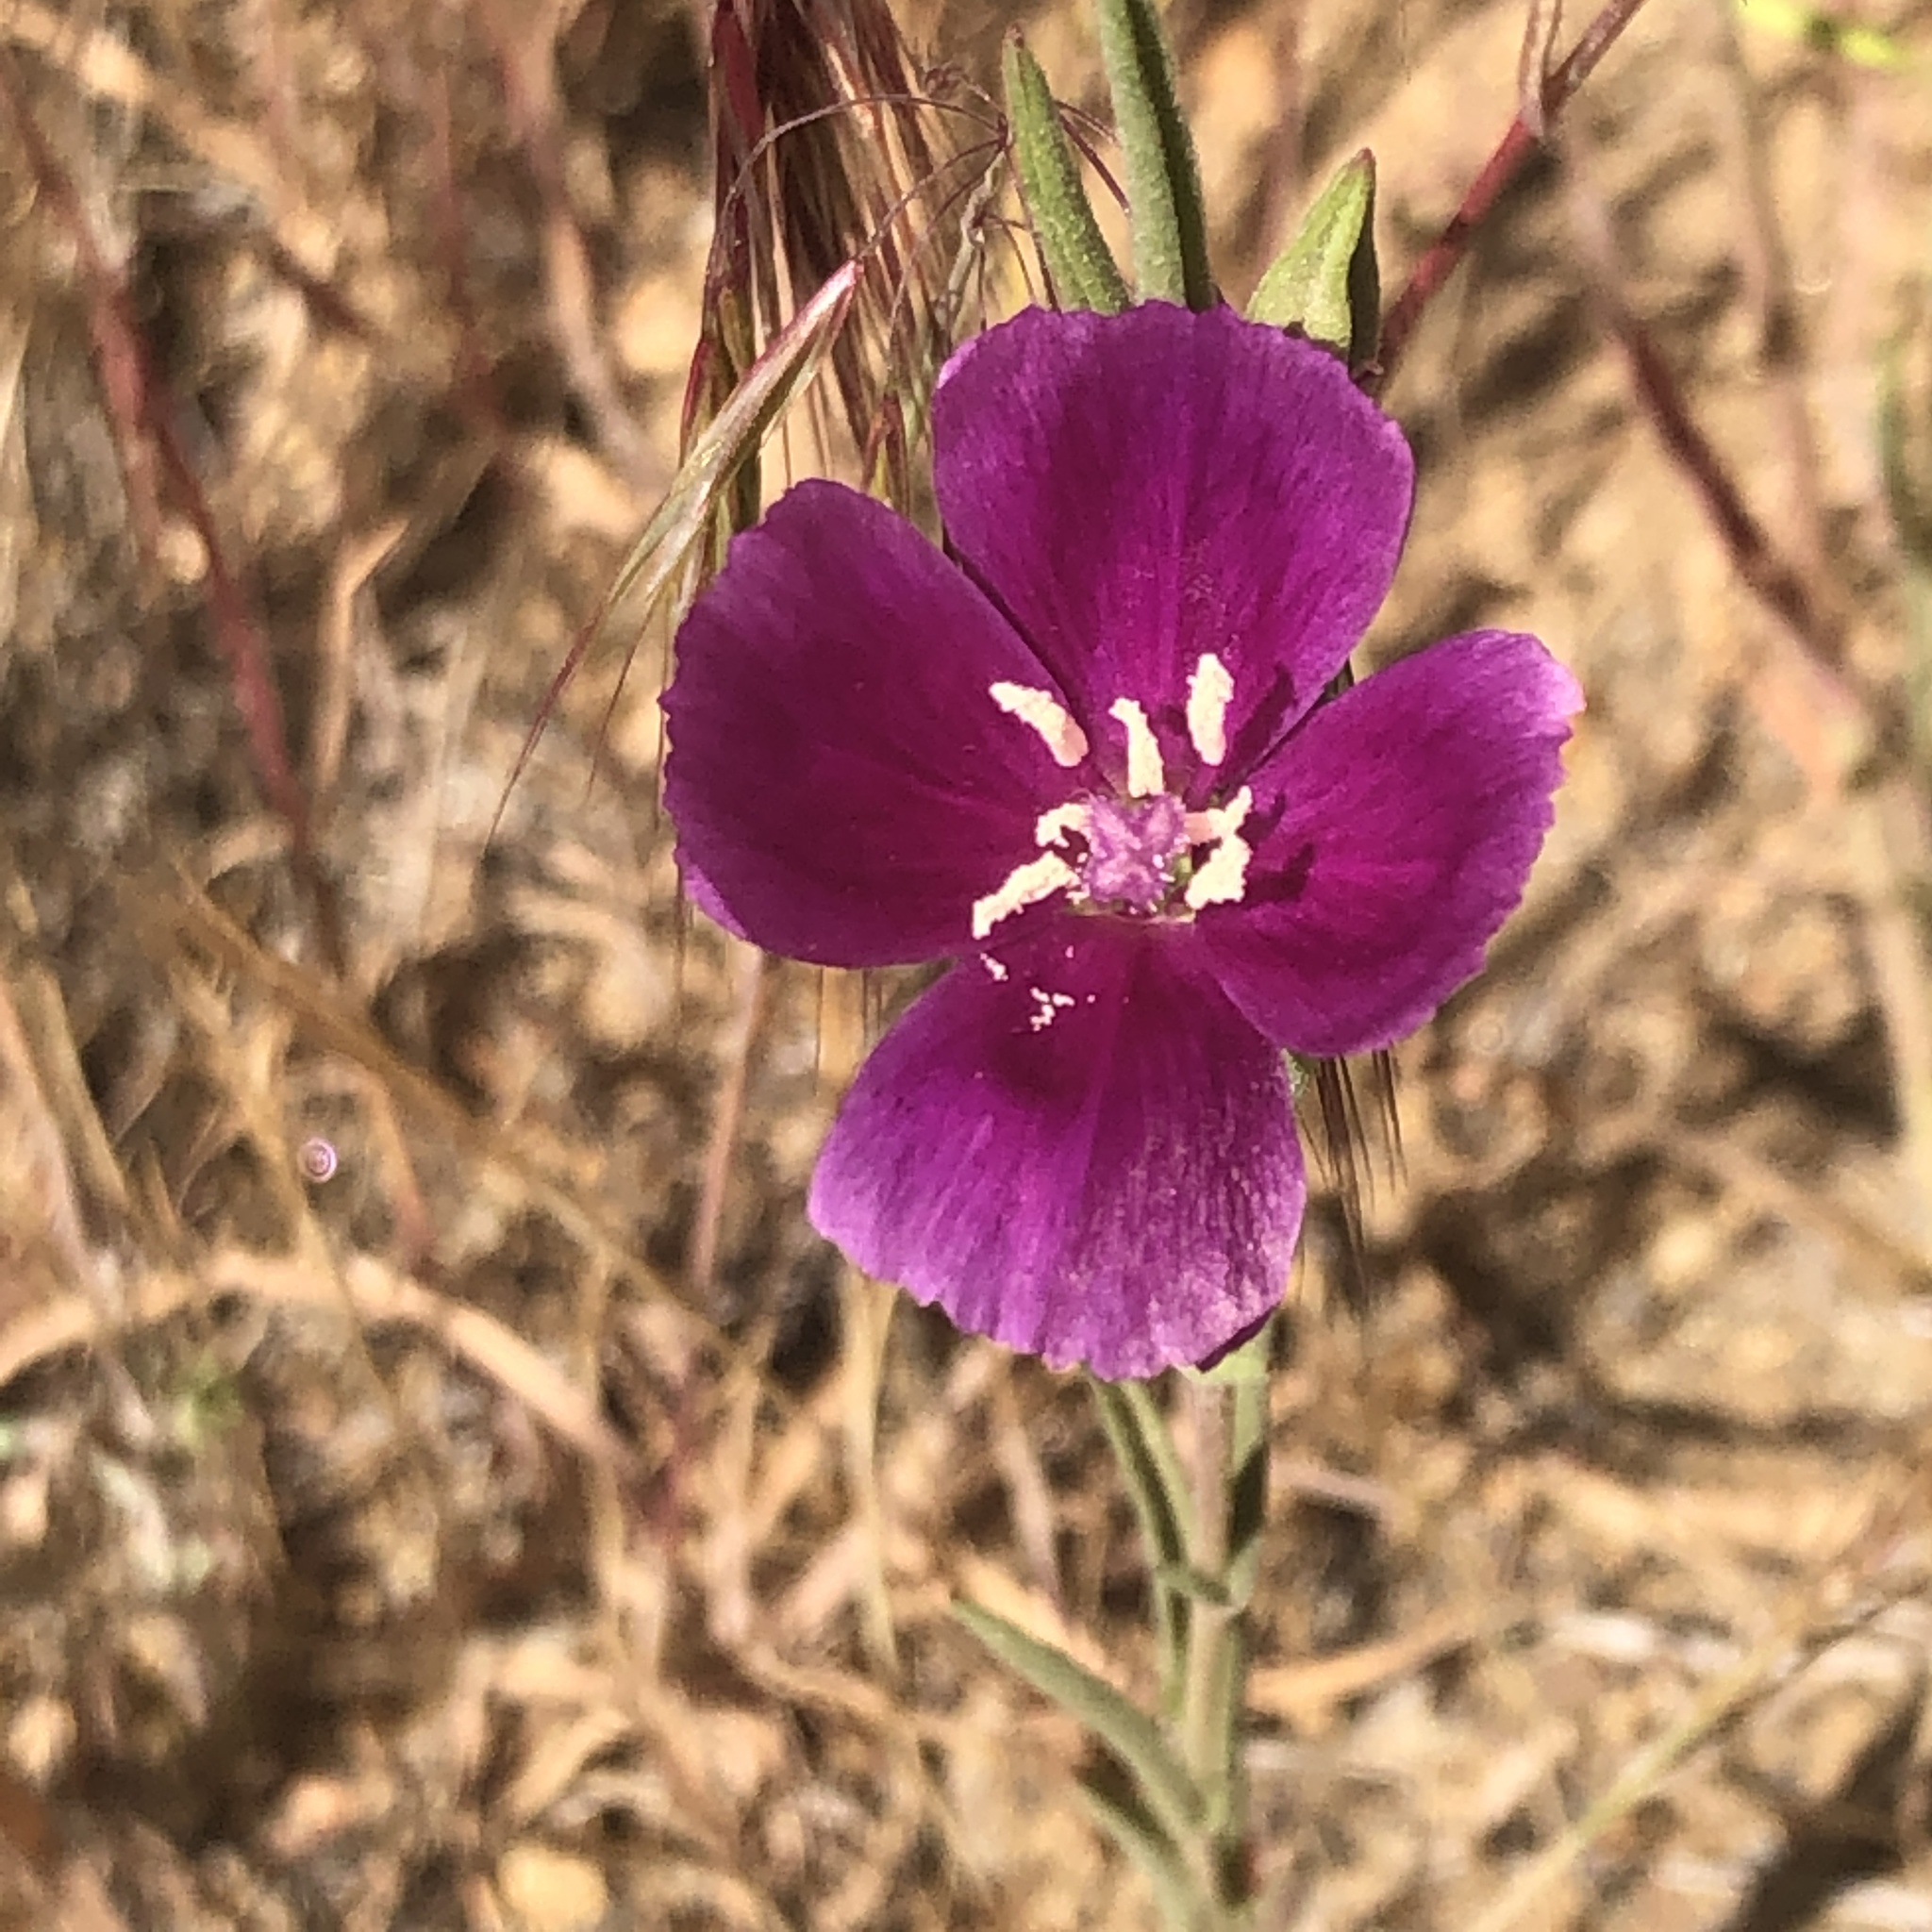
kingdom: Plantae
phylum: Tracheophyta
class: Magnoliopsida
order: Myrtales
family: Onagraceae
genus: Clarkia
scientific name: Clarkia purpurea
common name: Purple clarkia
